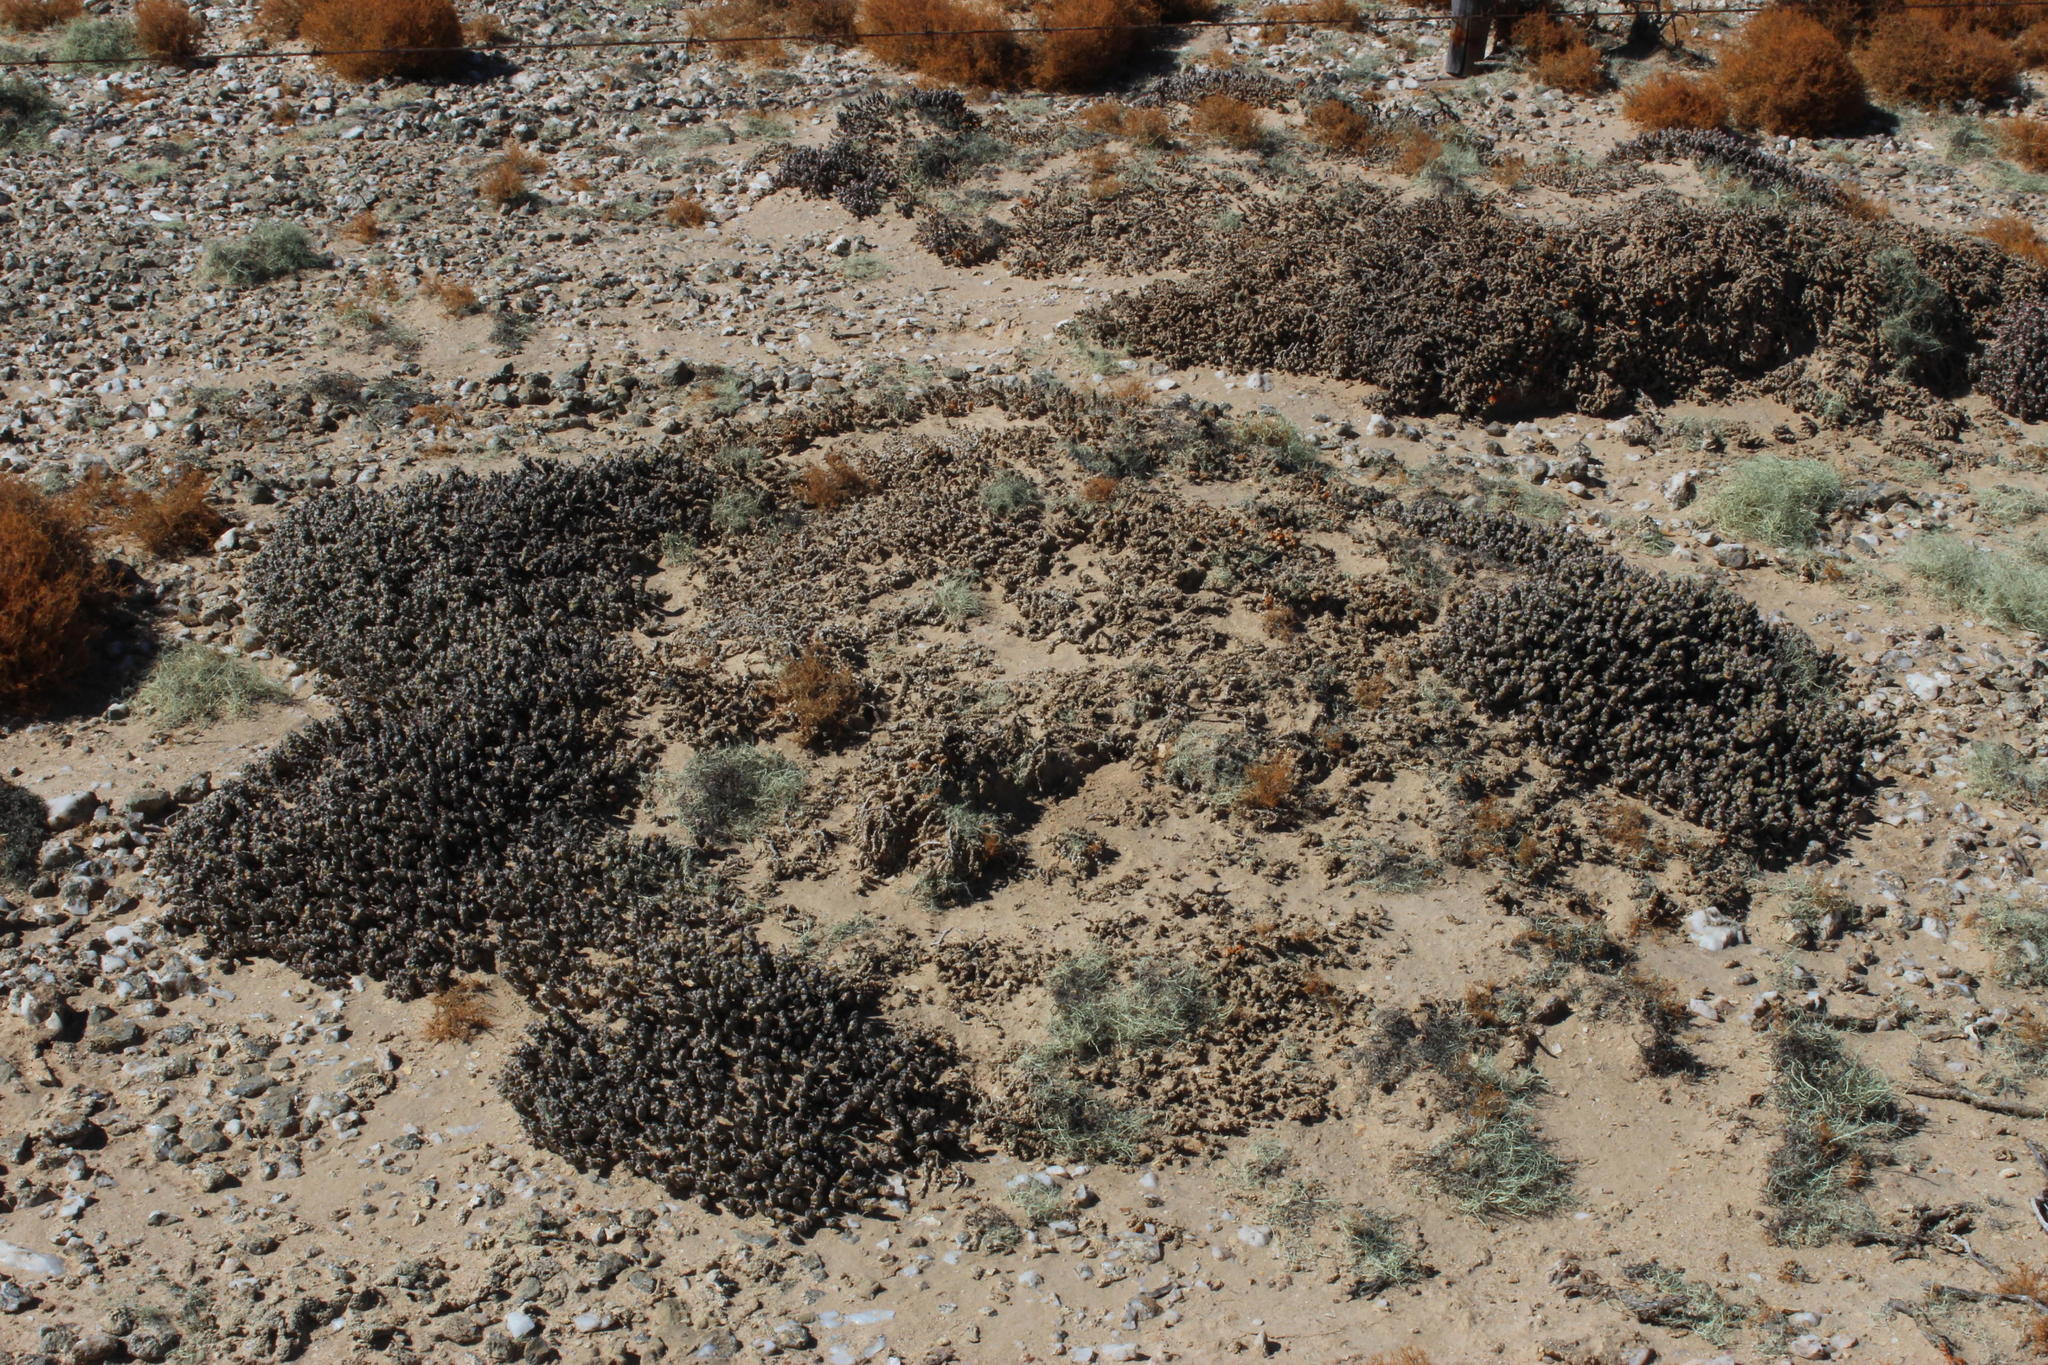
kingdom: Plantae
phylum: Tracheophyta
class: Magnoliopsida
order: Caryophyllales
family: Aizoaceae
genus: Mesembryanthemum
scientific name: Mesembryanthemum marlothii
